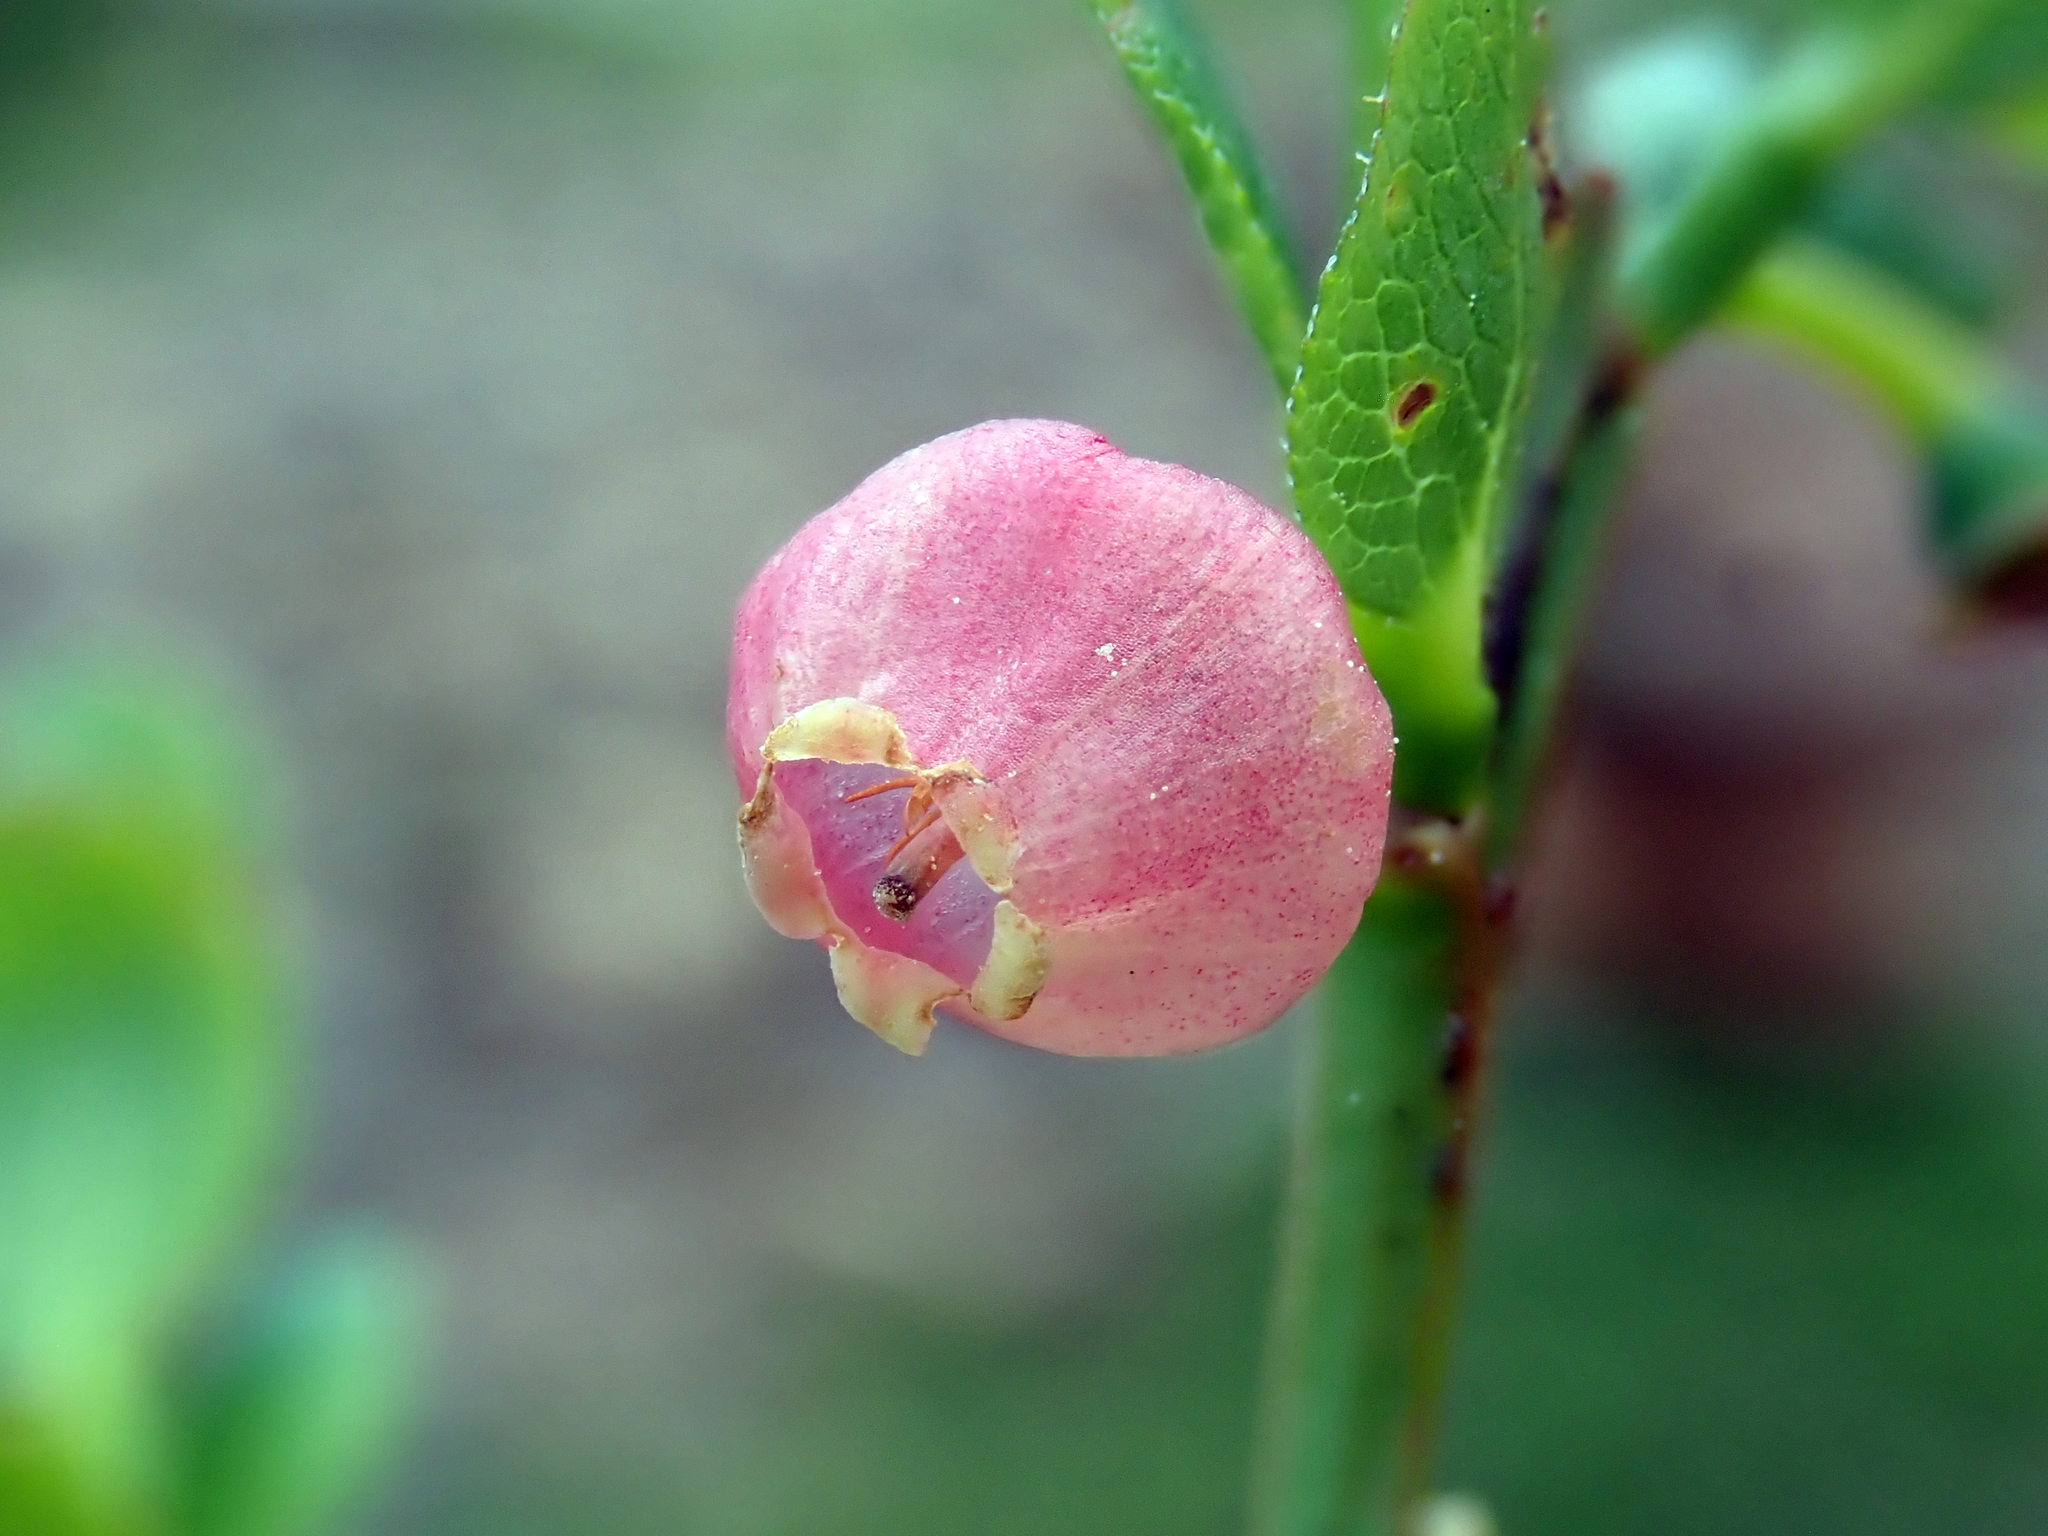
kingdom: Plantae
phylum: Tracheophyta
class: Magnoliopsida
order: Ericales
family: Ericaceae
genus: Vaccinium
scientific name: Vaccinium myrtillus
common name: Bilberry
